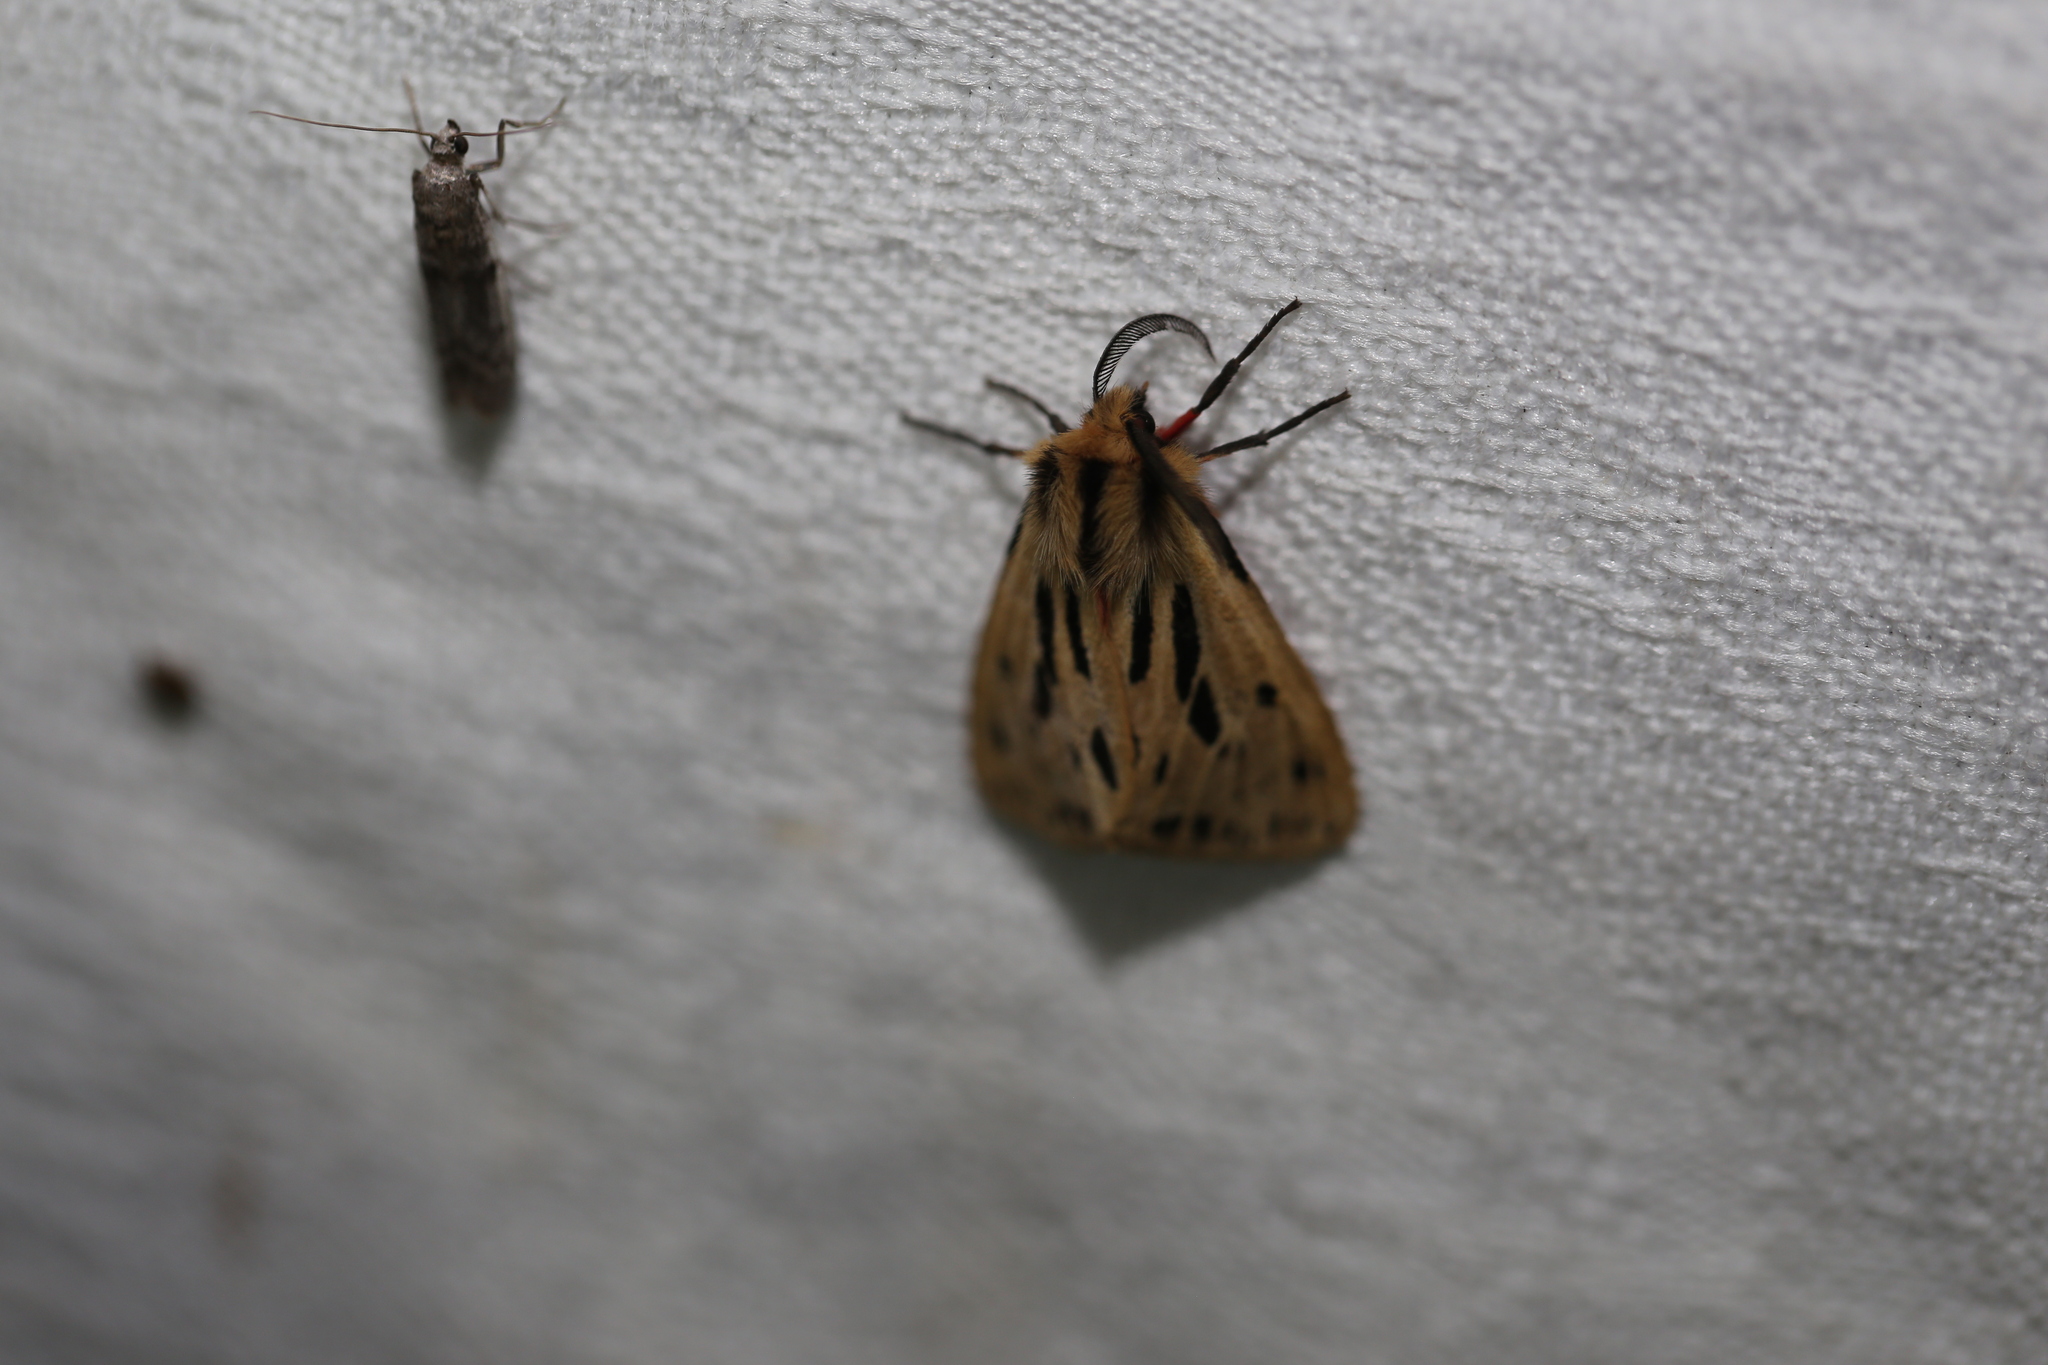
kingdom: Animalia
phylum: Arthropoda
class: Insecta
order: Lepidoptera
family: Erebidae
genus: Ardices
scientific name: Ardices curvata
